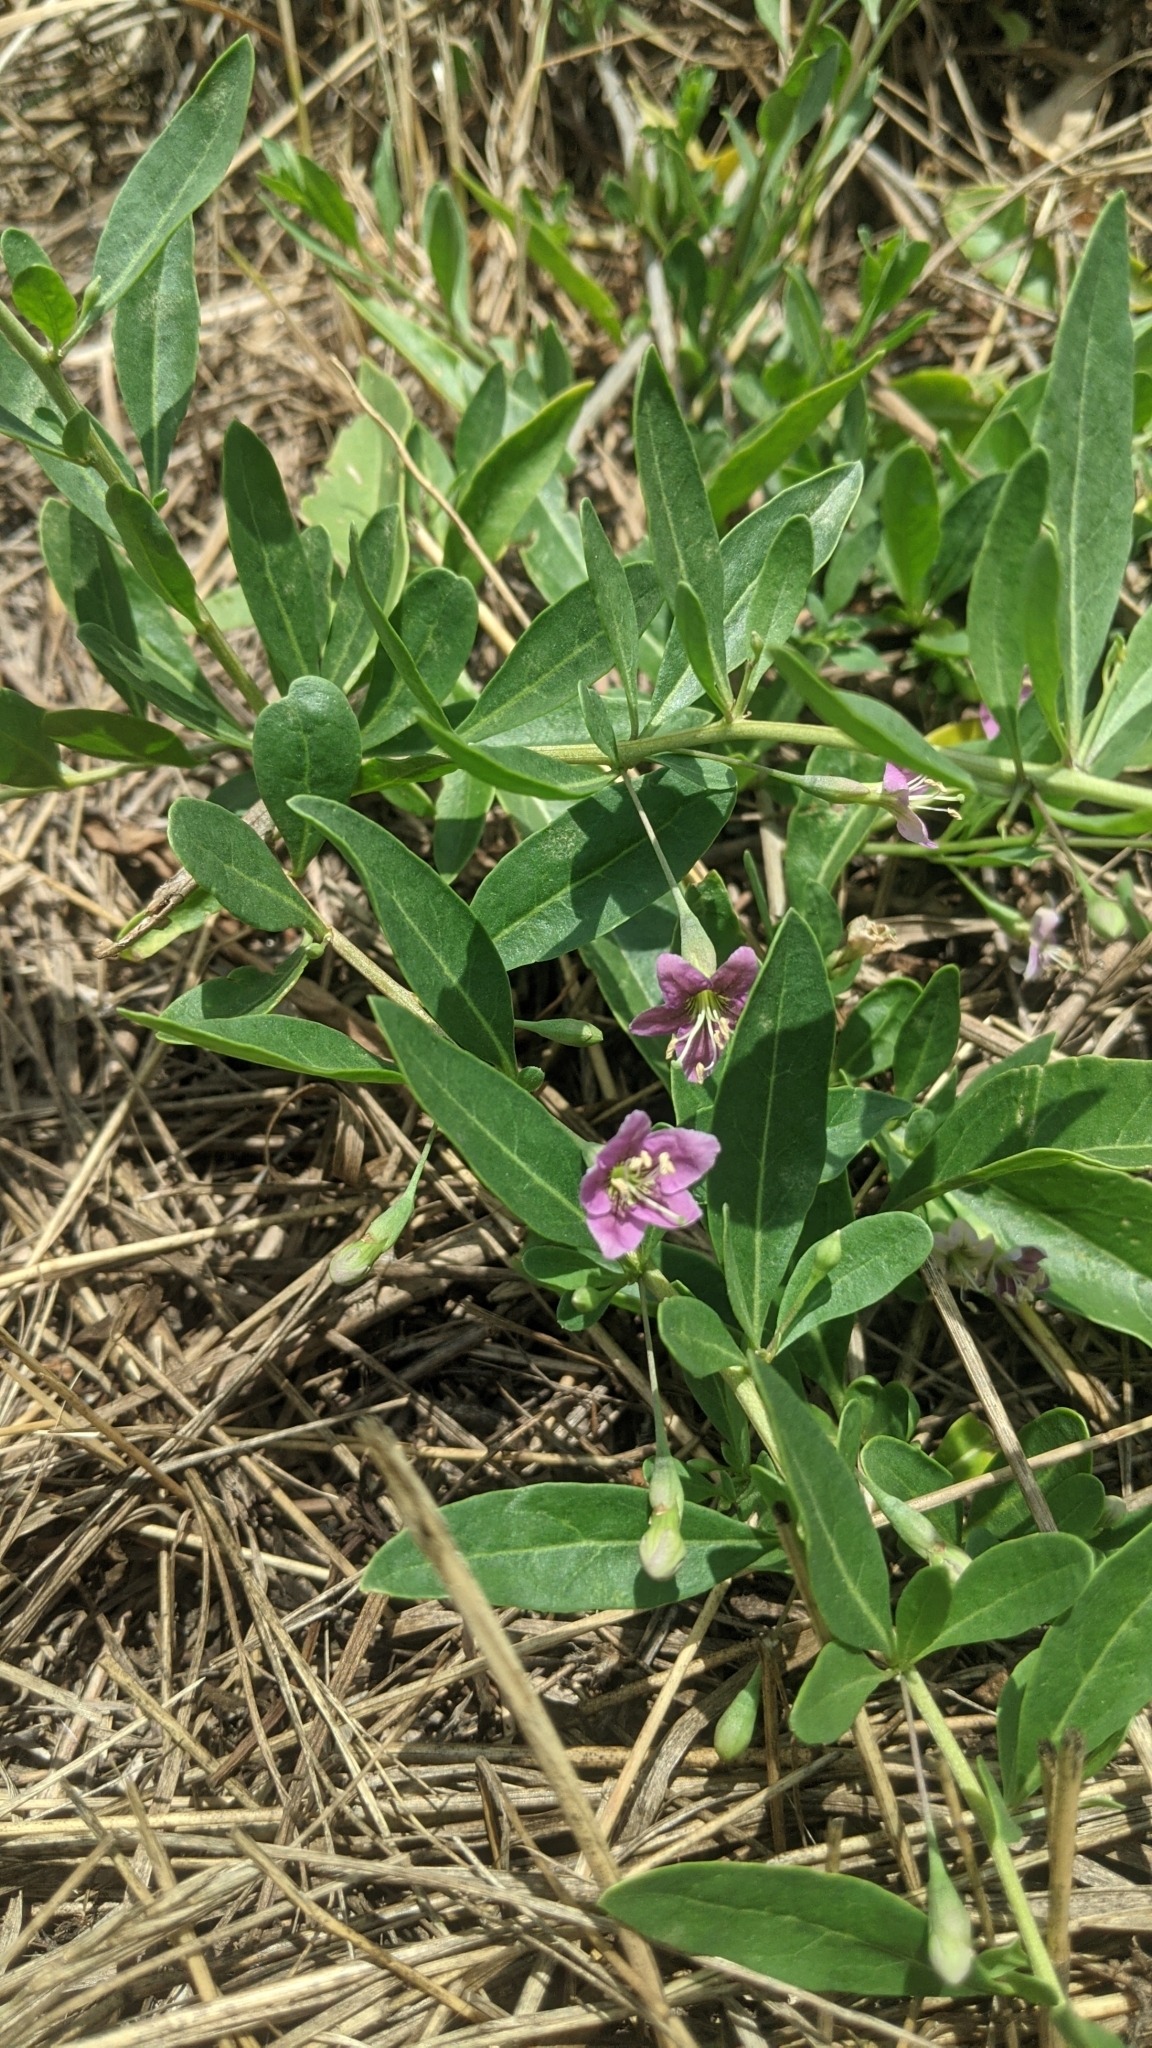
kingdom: Plantae
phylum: Tracheophyta
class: Magnoliopsida
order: Solanales
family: Solanaceae
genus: Lycium
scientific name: Lycium barbarum
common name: Duke of argyll's teaplant
